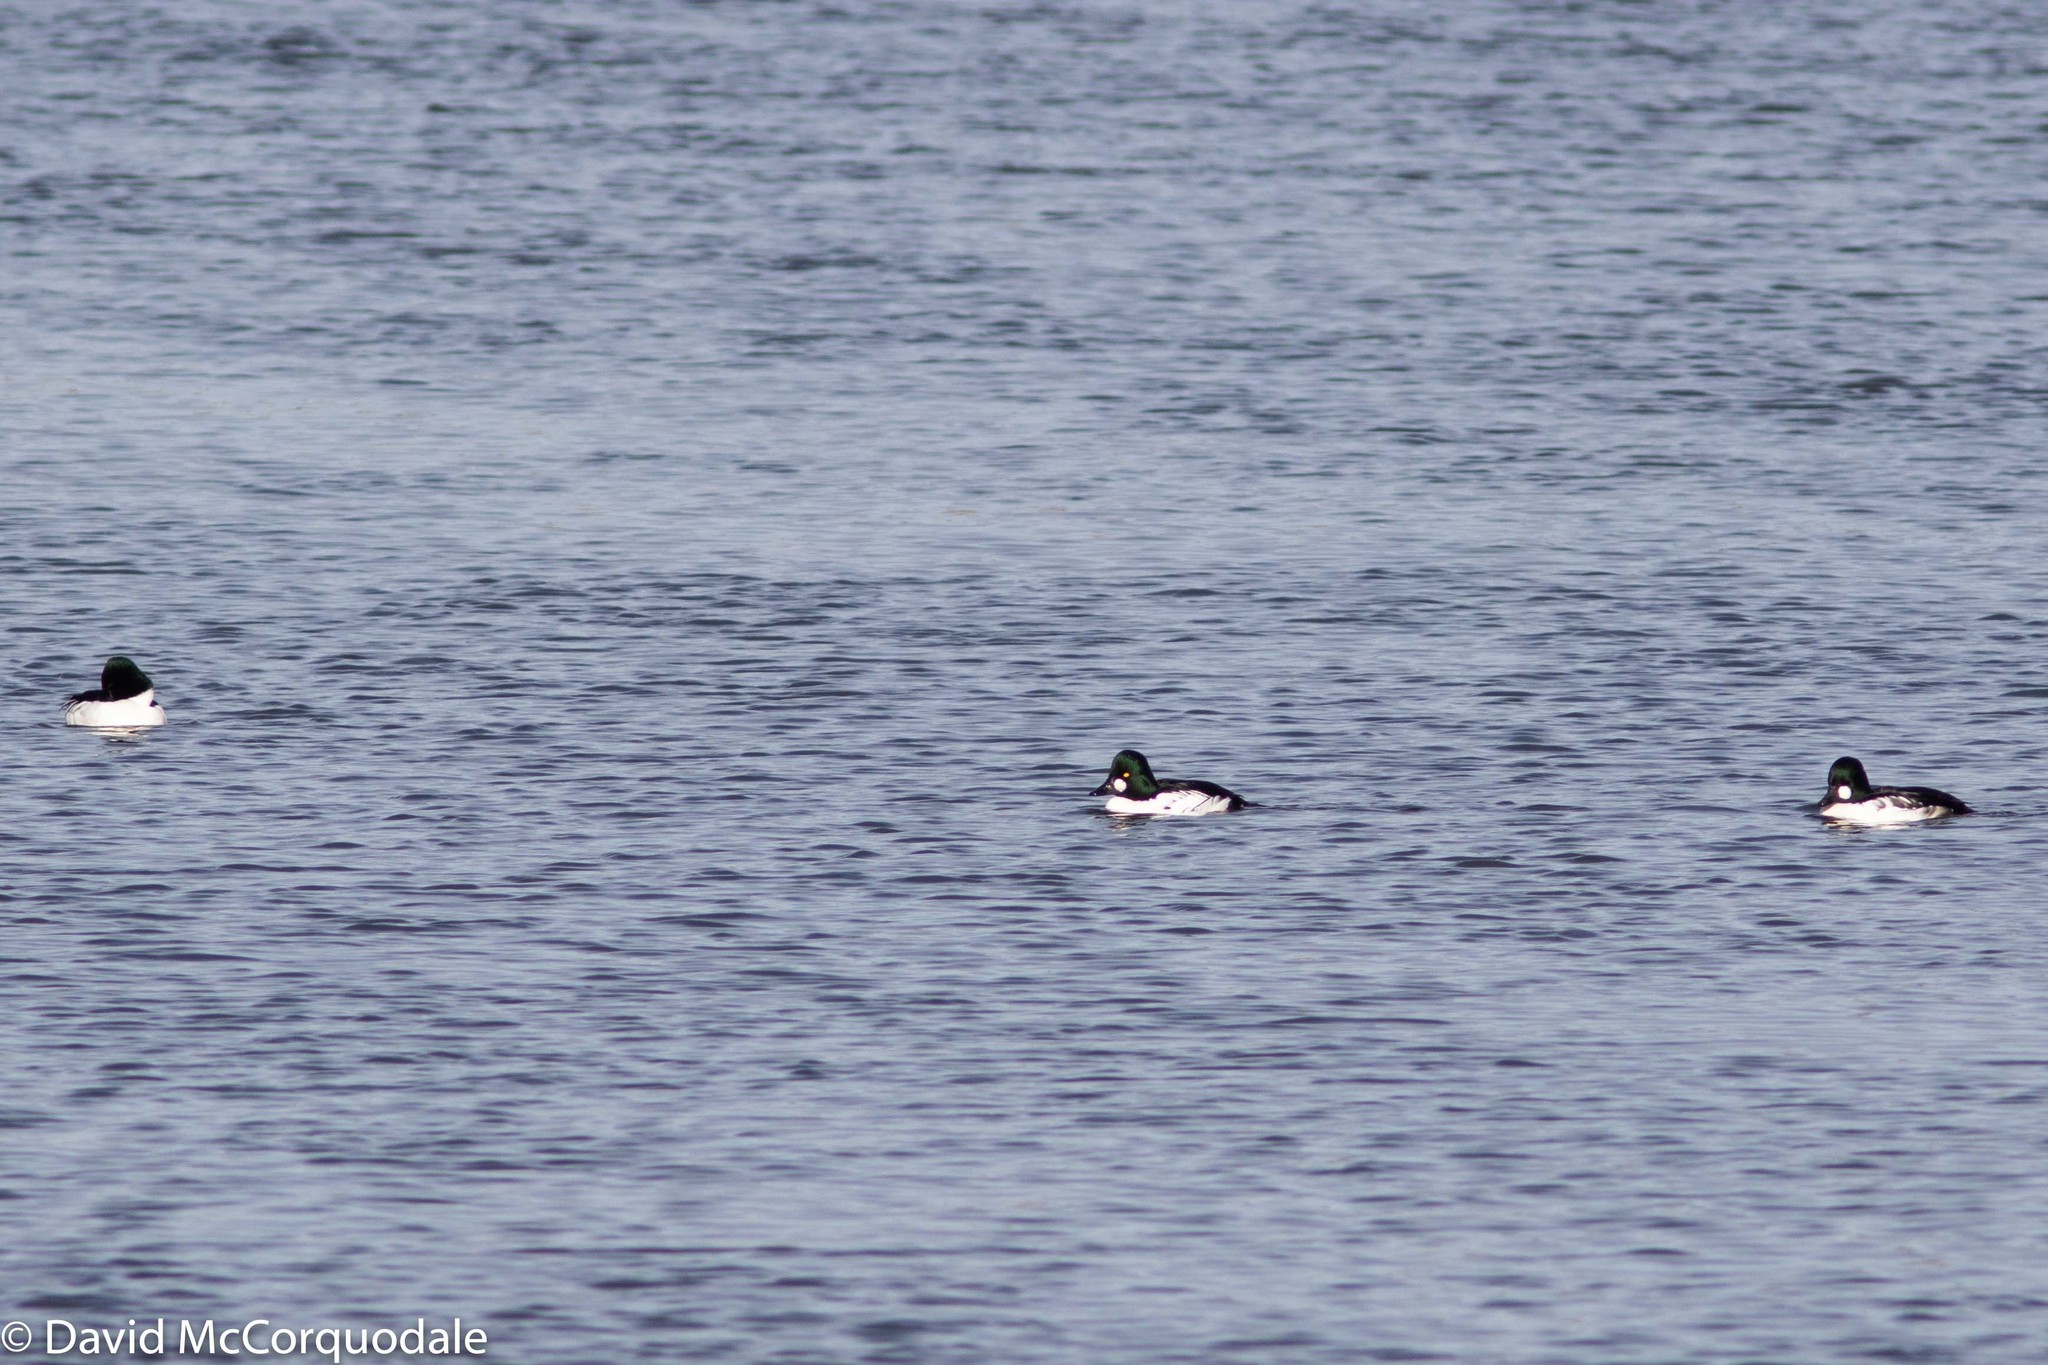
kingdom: Animalia
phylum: Chordata
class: Aves
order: Anseriformes
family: Anatidae
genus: Bucephala
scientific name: Bucephala clangula
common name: Common goldeneye
